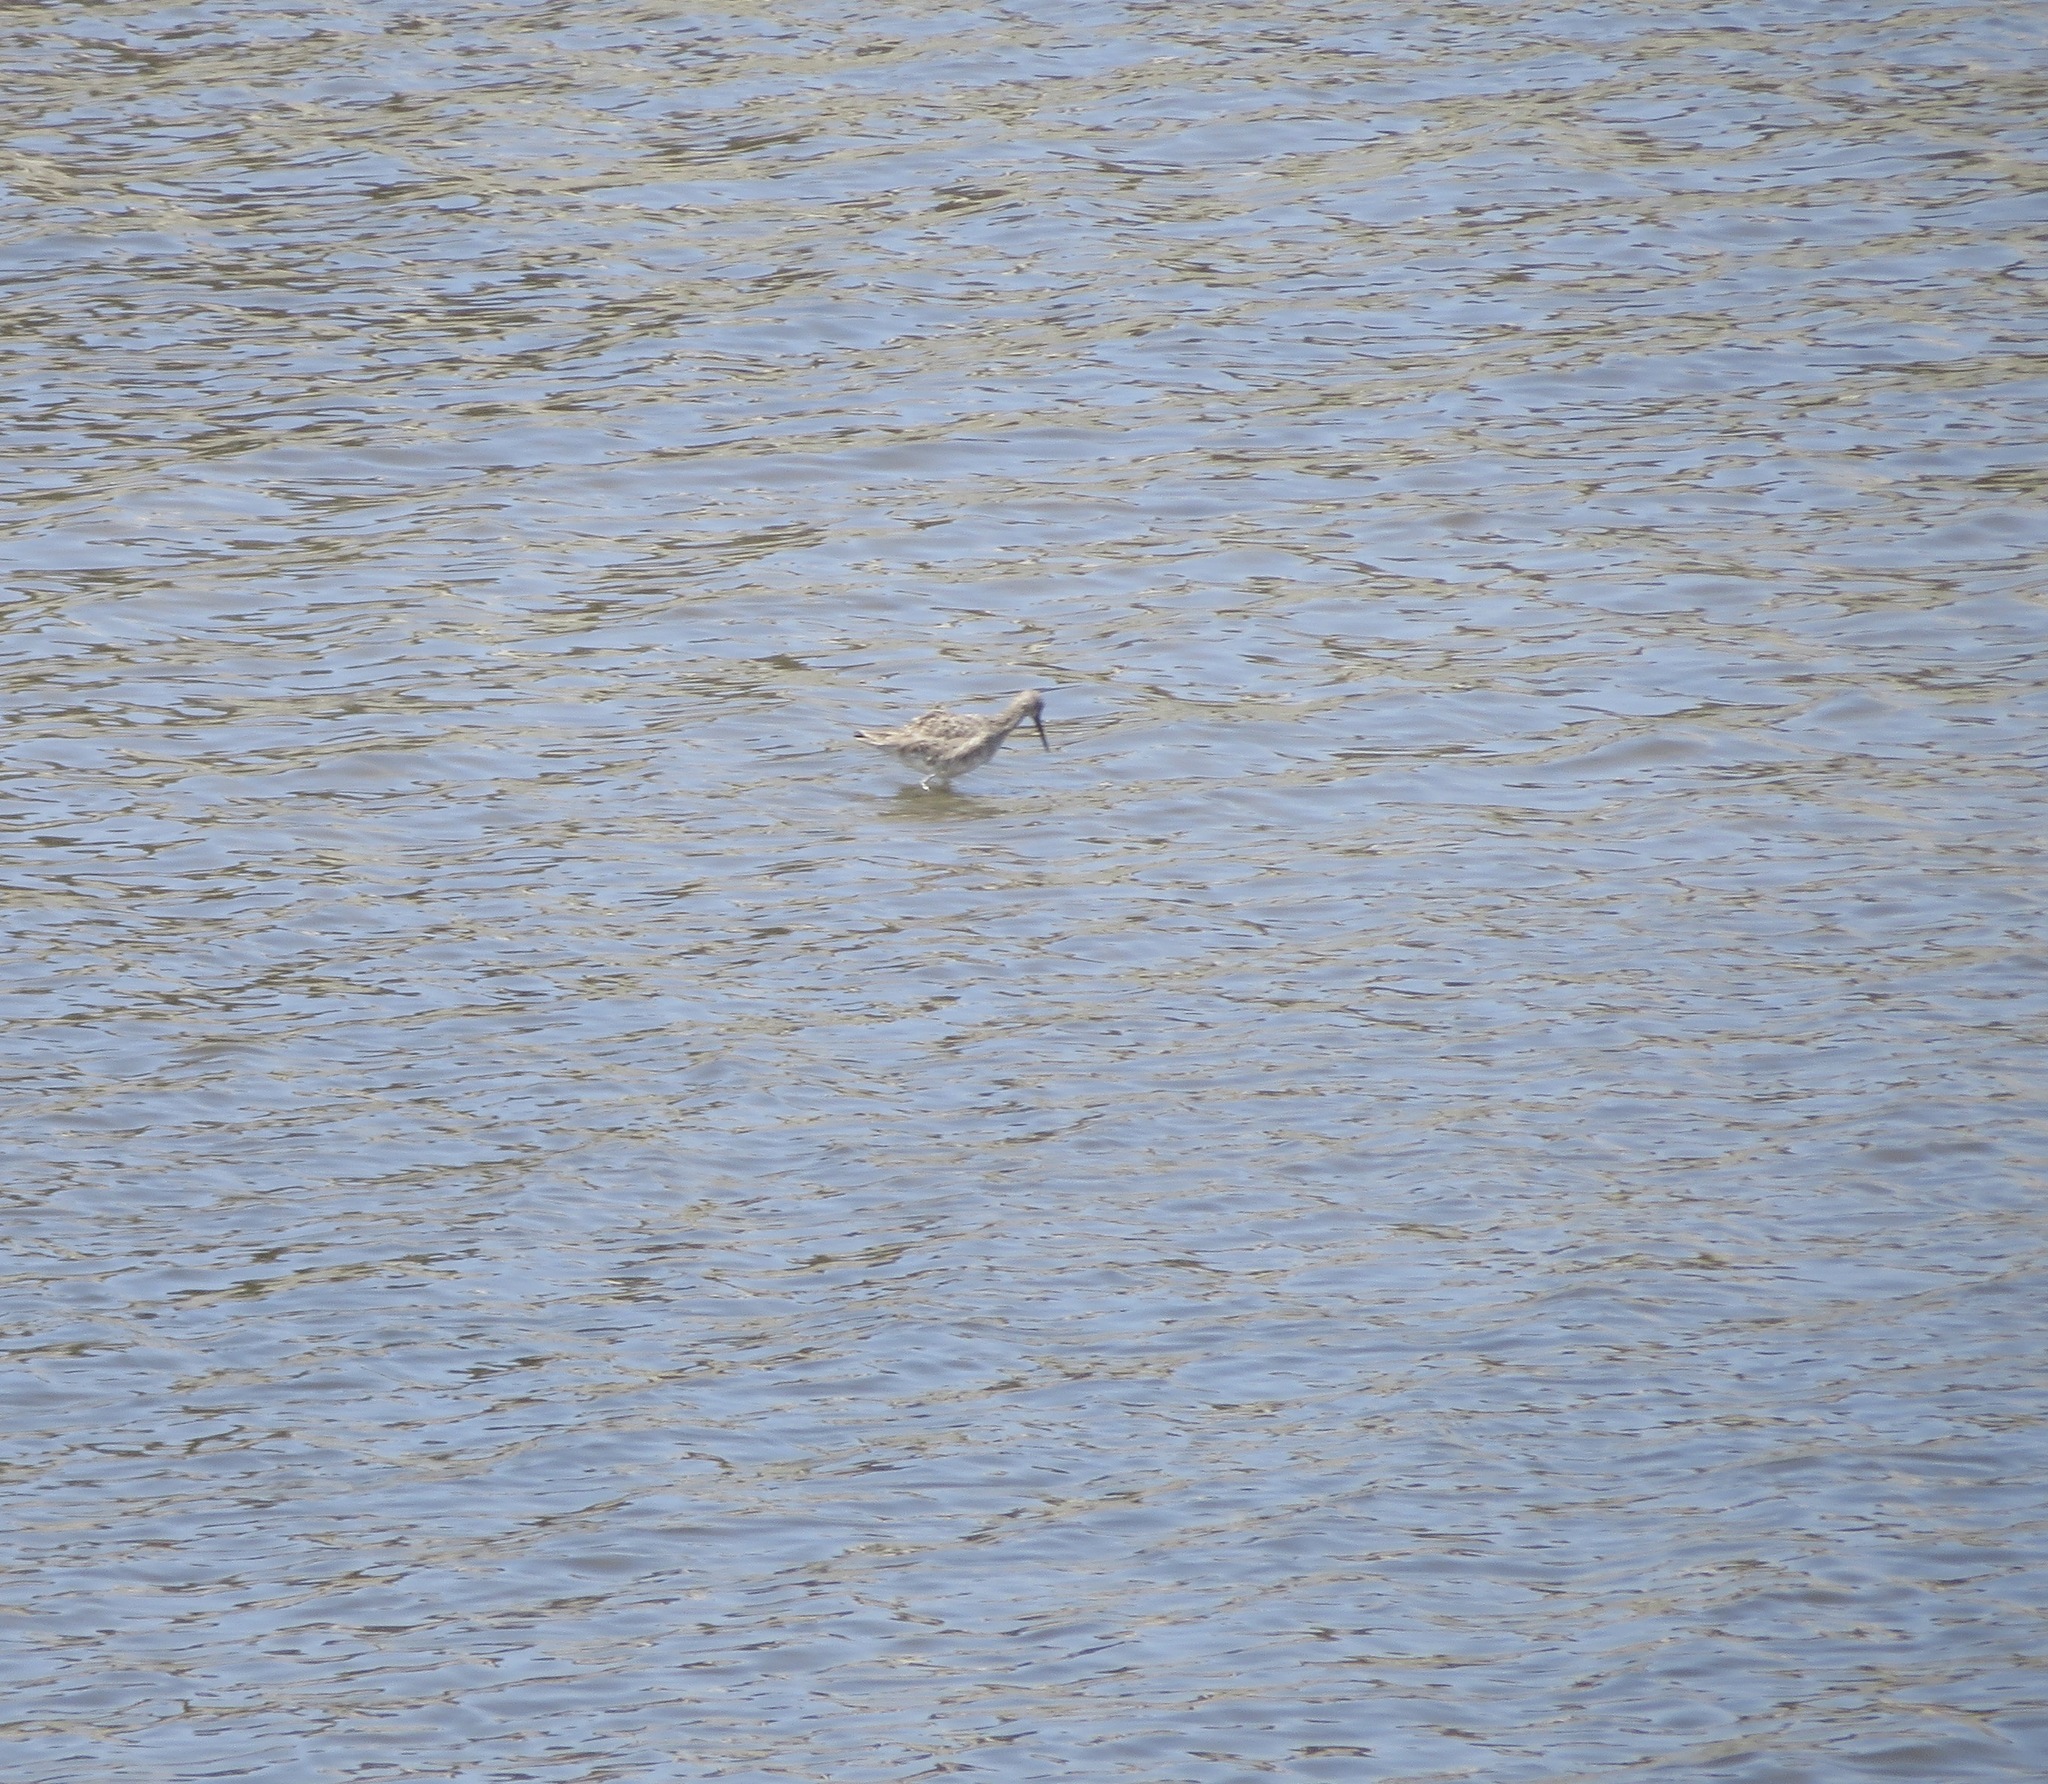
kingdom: Animalia
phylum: Chordata
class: Aves
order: Charadriiformes
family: Scolopacidae
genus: Tringa
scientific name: Tringa semipalmata
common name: Willet
